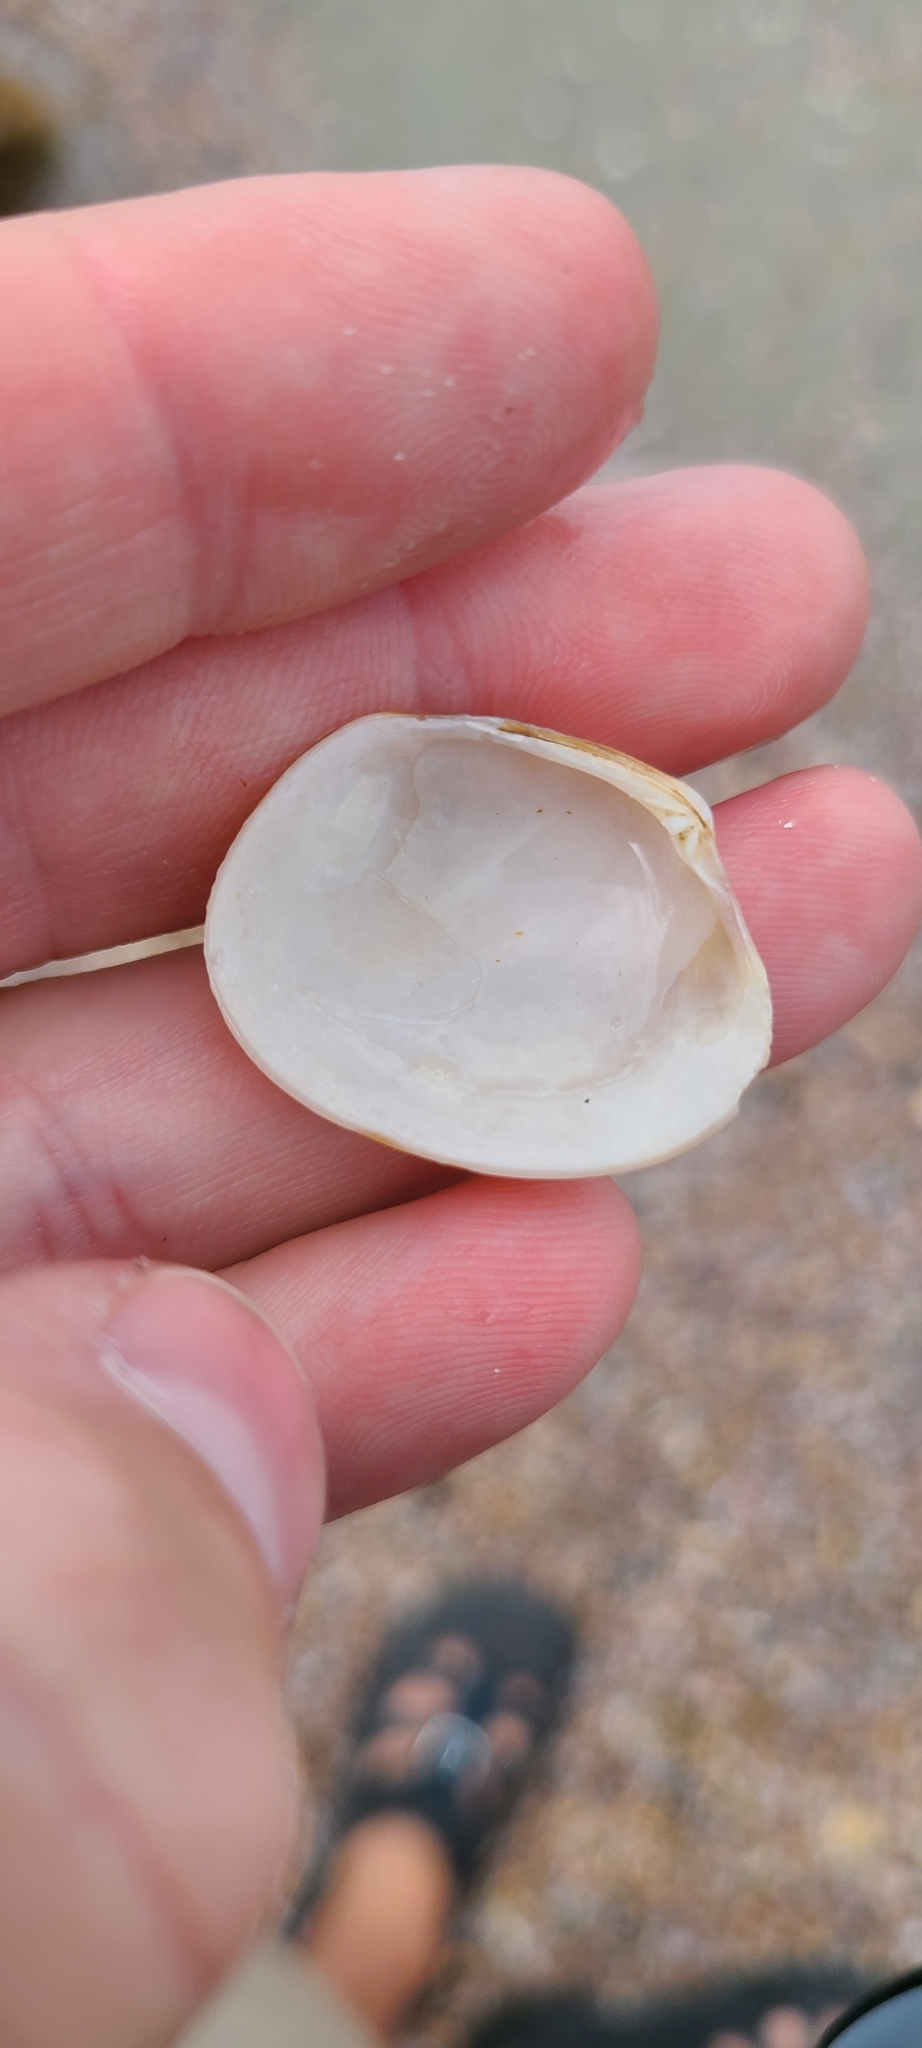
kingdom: Animalia
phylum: Mollusca
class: Bivalvia
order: Venerida
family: Veneridae
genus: Venerupis
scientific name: Venerupis largillierti
